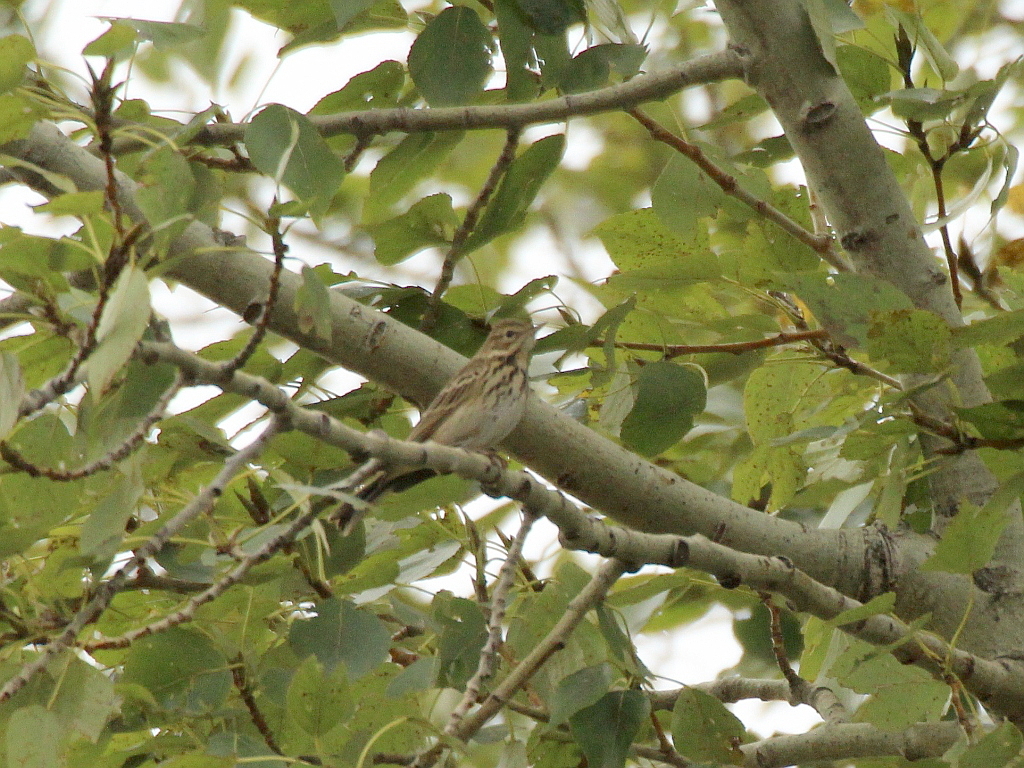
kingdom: Animalia
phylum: Chordata
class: Aves
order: Passeriformes
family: Motacillidae
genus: Anthus
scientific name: Anthus trivialis
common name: Tree pipit
